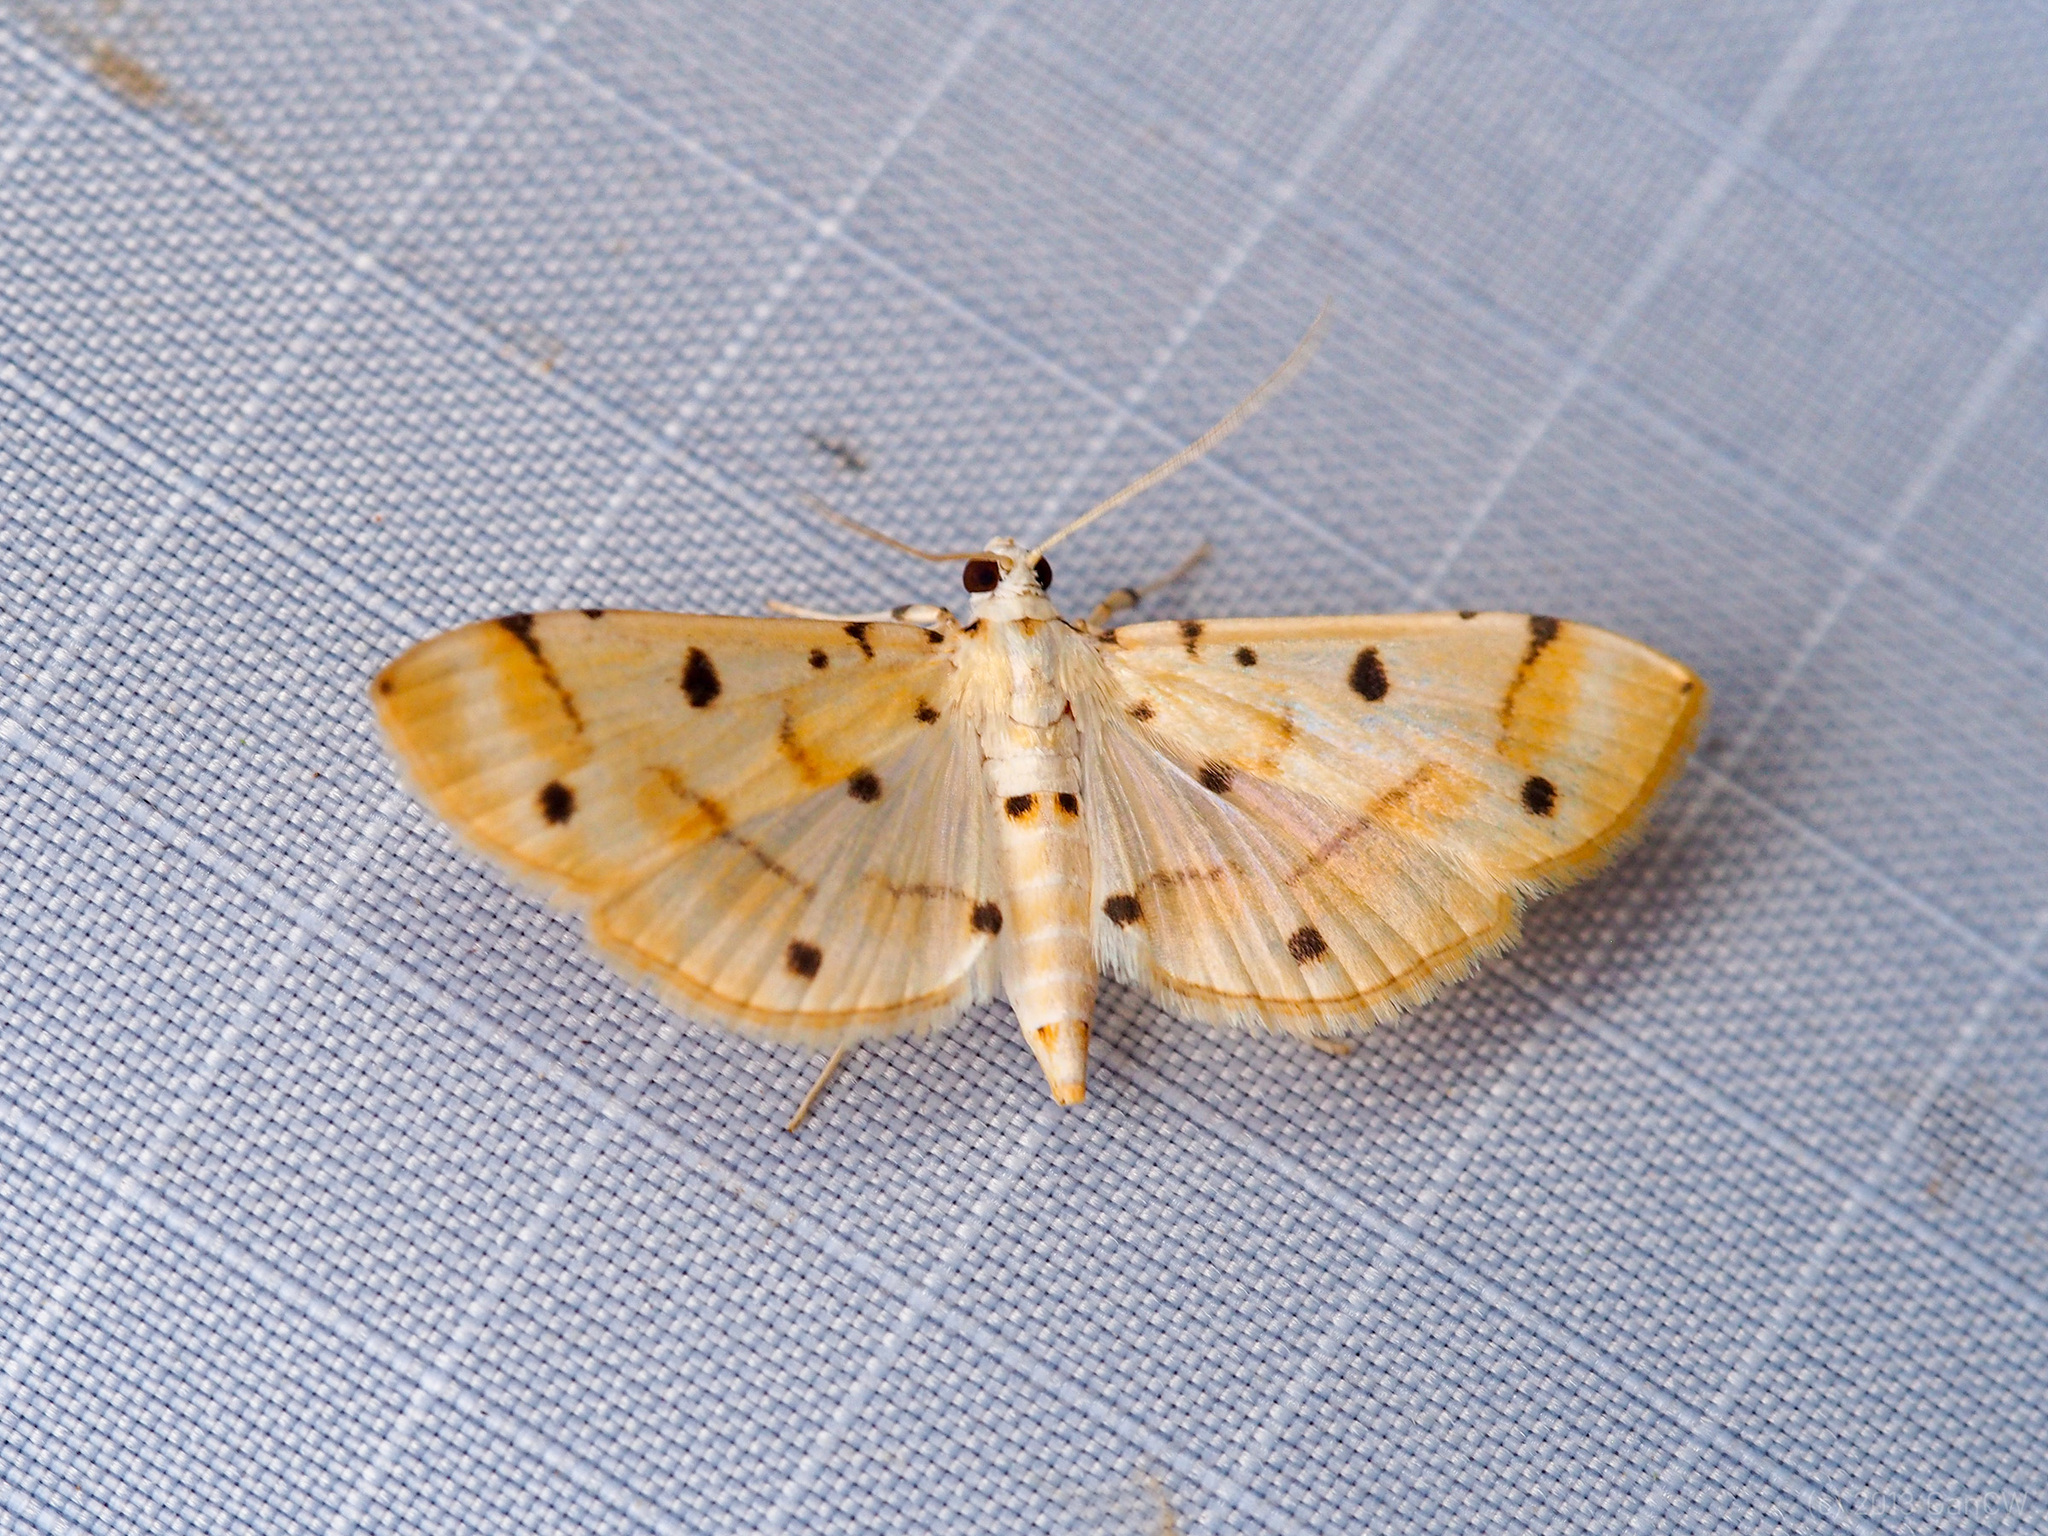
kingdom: Animalia
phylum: Arthropoda
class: Insecta
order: Lepidoptera
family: Crambidae
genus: Pycnarmon
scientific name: Pycnarmon lactiferalis
